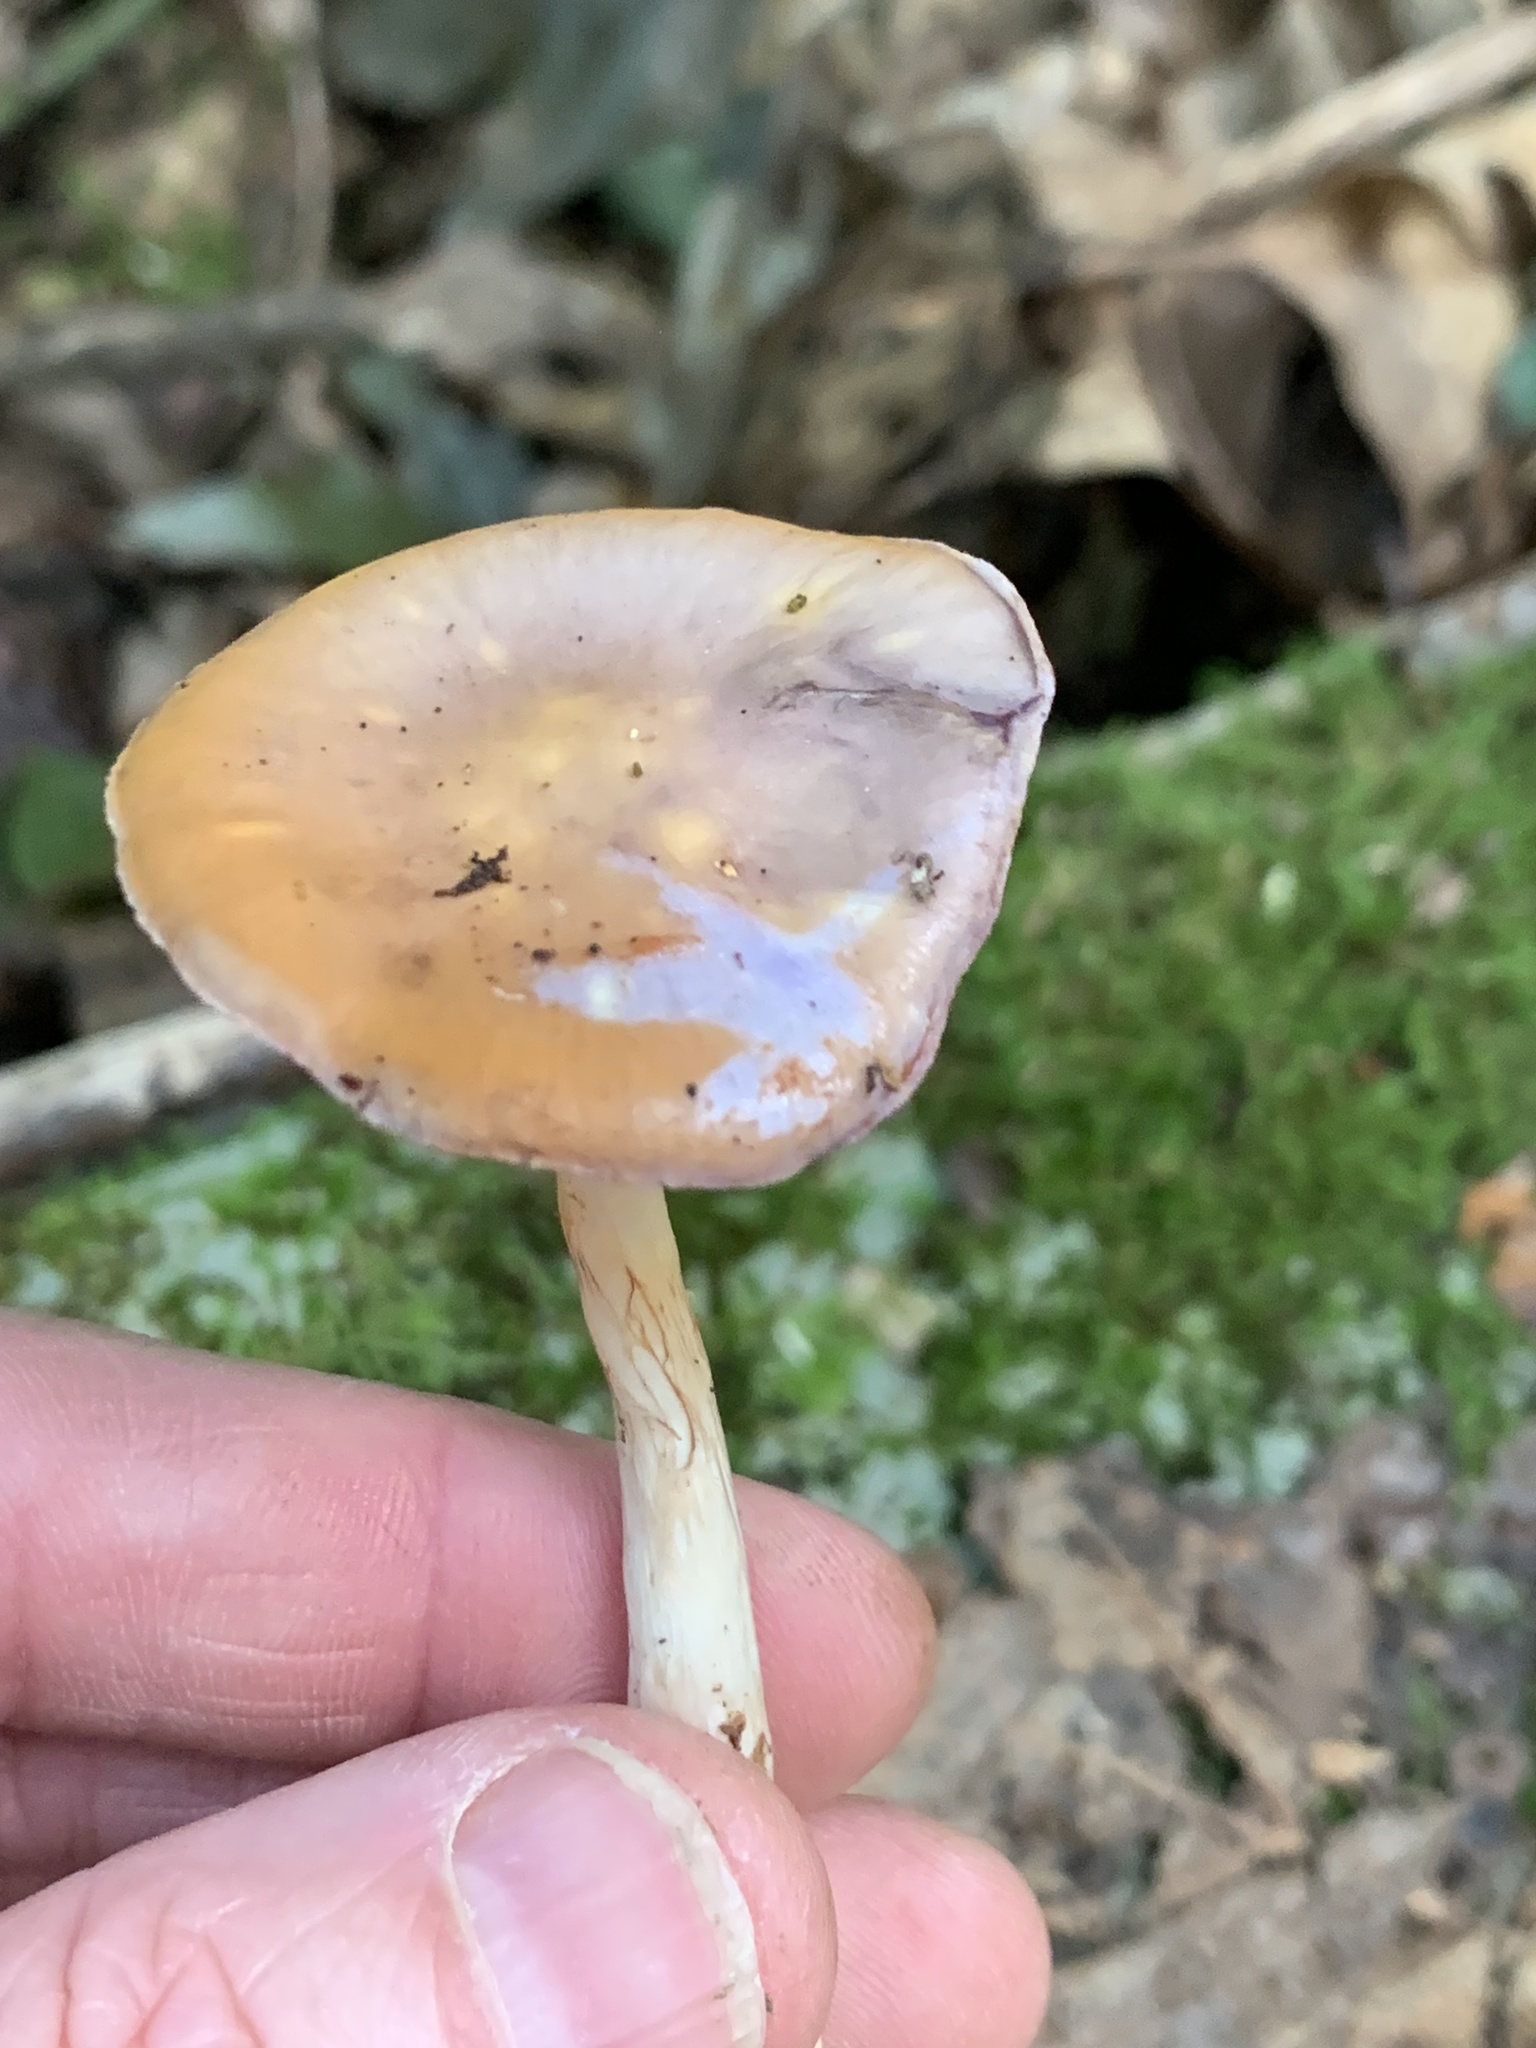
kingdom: Fungi
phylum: Basidiomycota
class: Agaricomycetes
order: Agaricales
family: Cortinariaceae
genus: Cortinarius
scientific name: Cortinarius iodes
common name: Viscid violet cort
